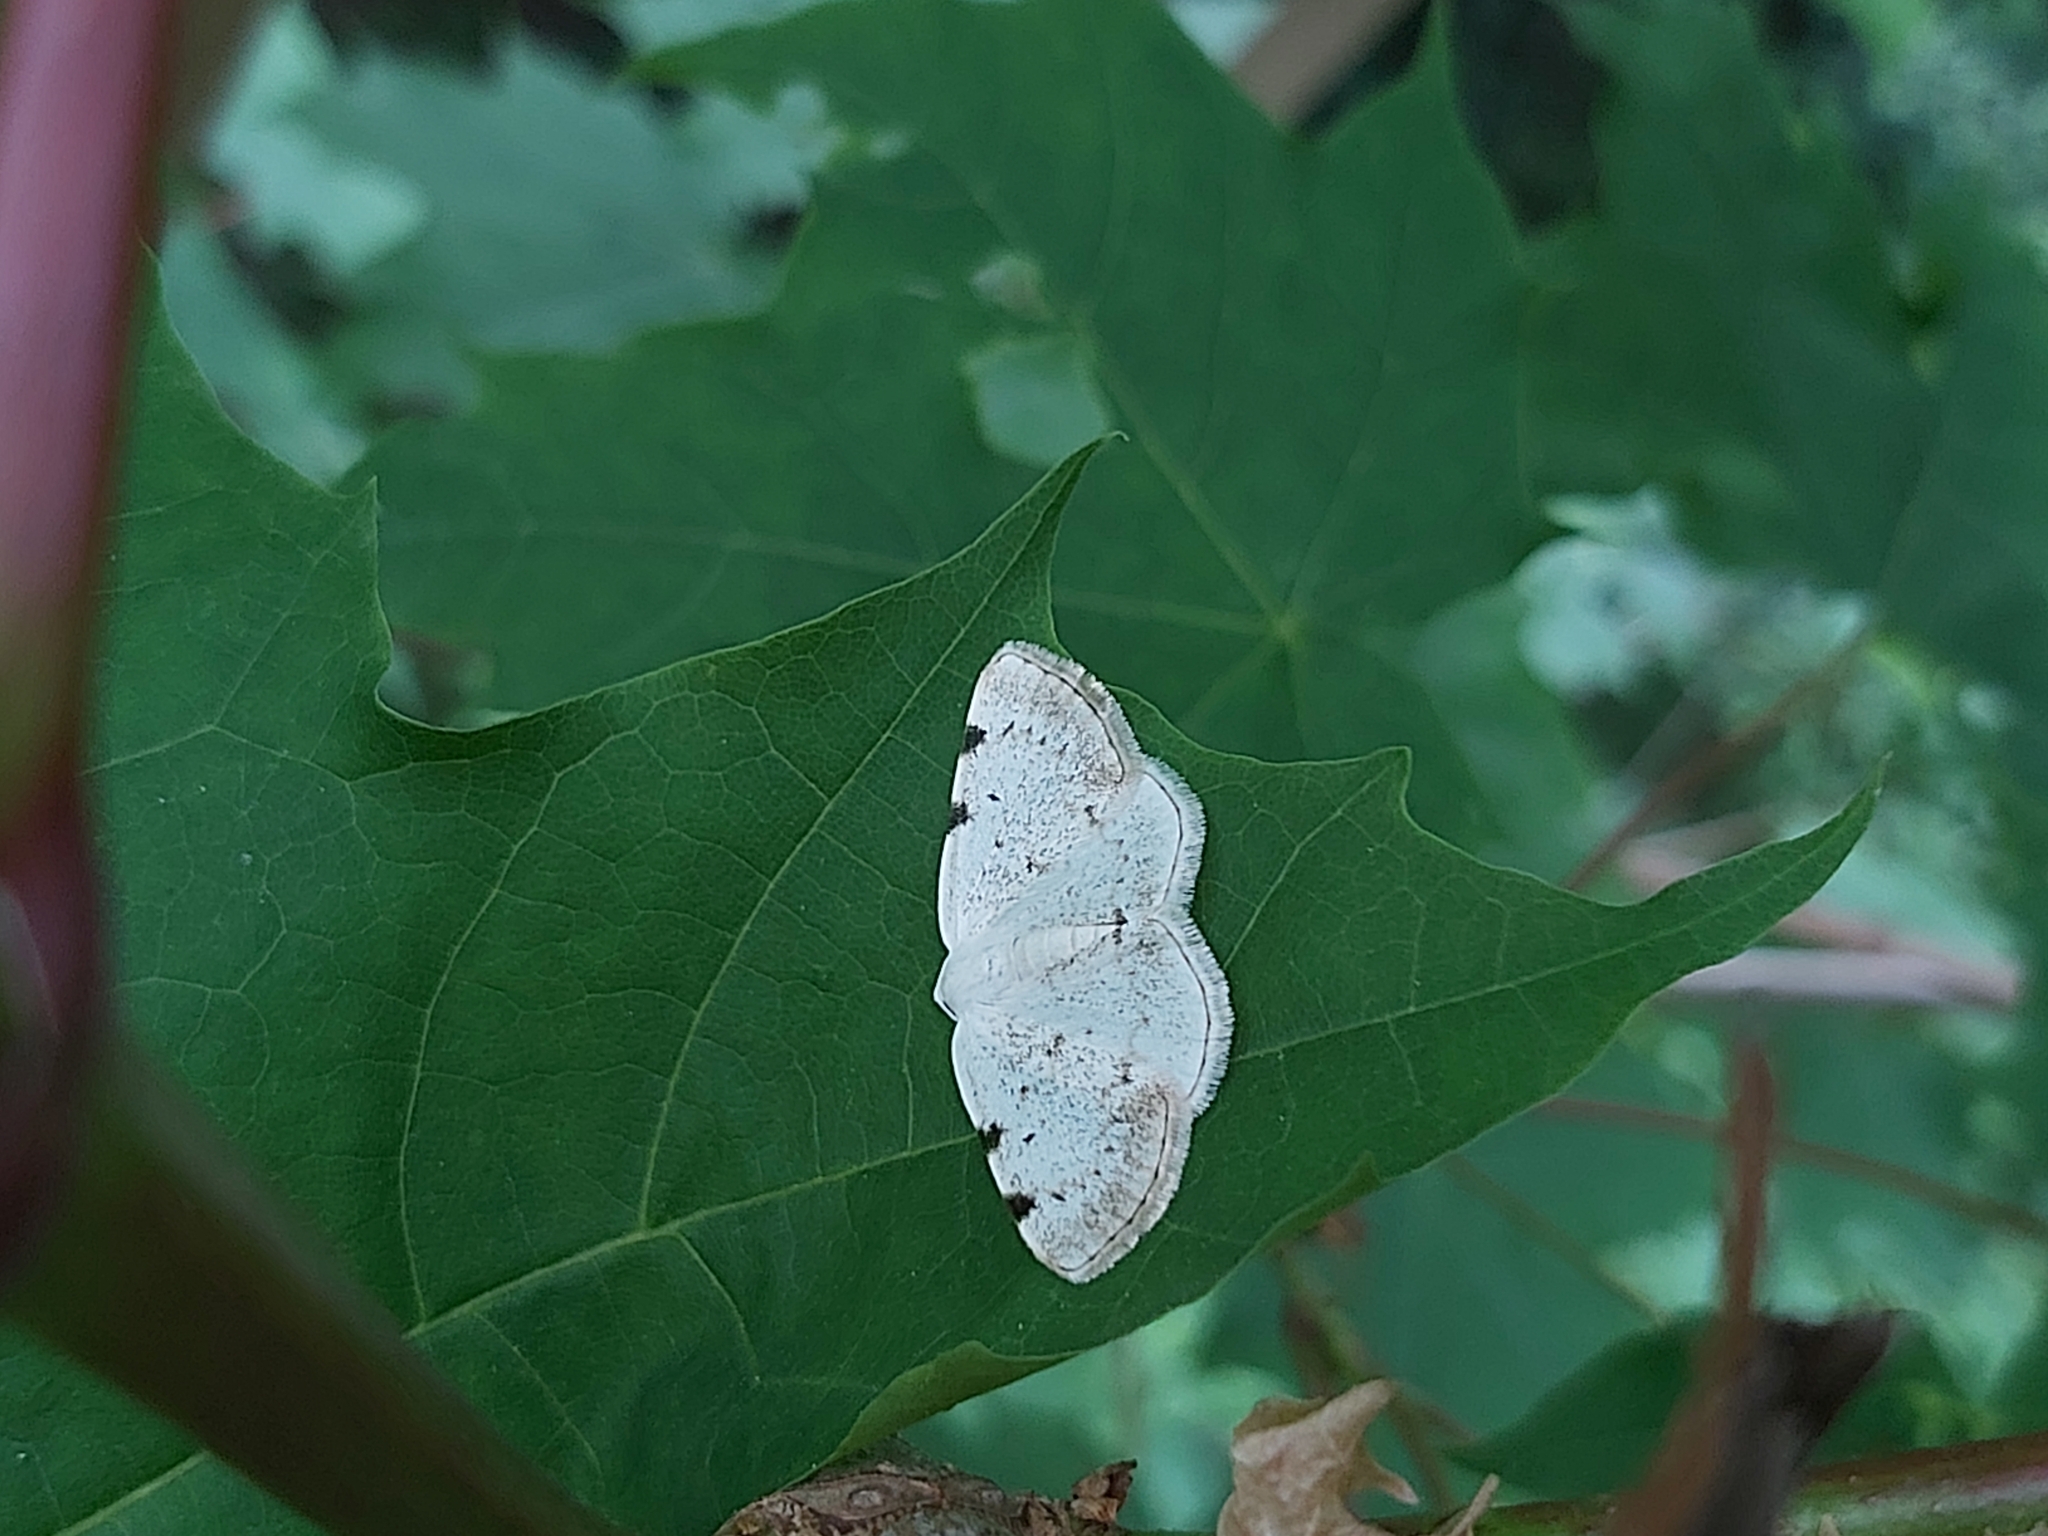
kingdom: Animalia
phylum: Arthropoda
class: Insecta
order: Lepidoptera
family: Geometridae
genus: Lomographa
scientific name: Lomographa bimaculata
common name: White-pinion spotted
